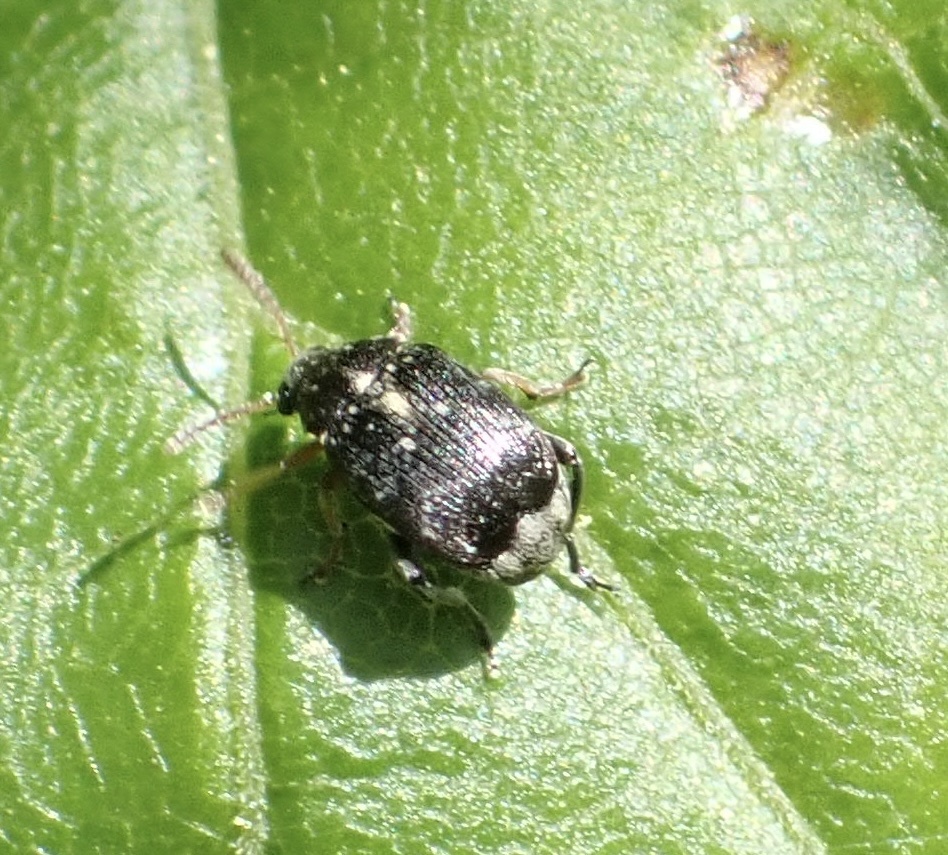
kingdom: Animalia
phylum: Arthropoda
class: Insecta
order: Coleoptera
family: Chrysomelidae
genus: Bruchus
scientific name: Bruchus luteicornis
